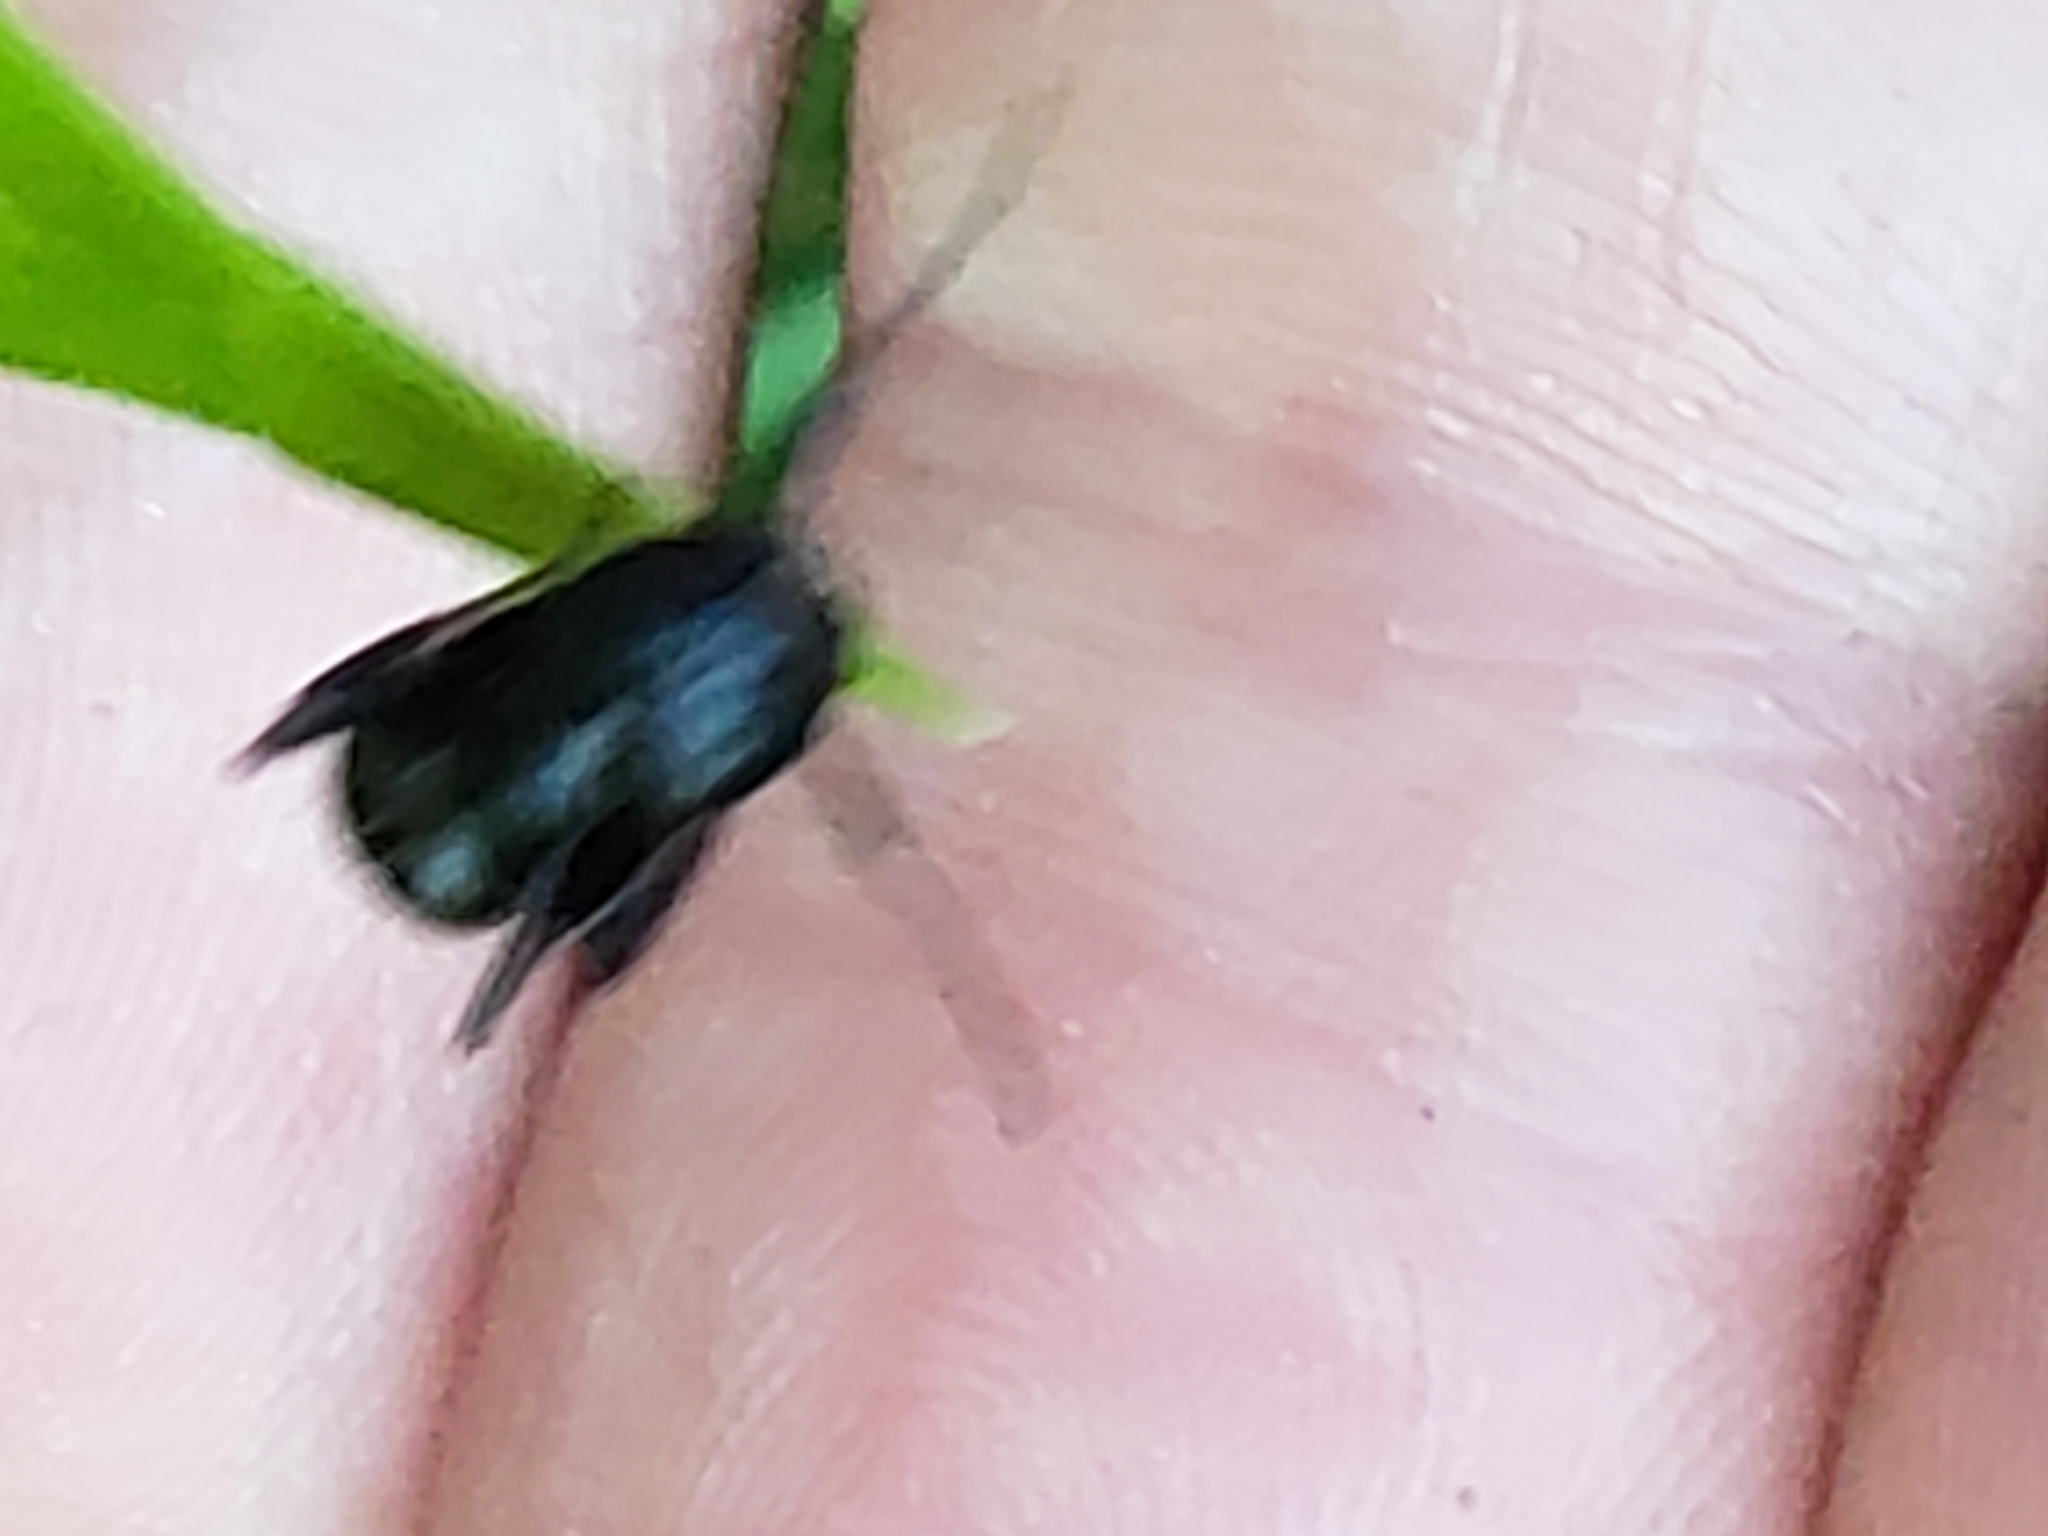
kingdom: Animalia
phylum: Arthropoda
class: Insecta
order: Hymenoptera
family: Formicidae
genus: Camponotus
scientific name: Camponotus pennsylvanicus
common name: Black carpenter ant
